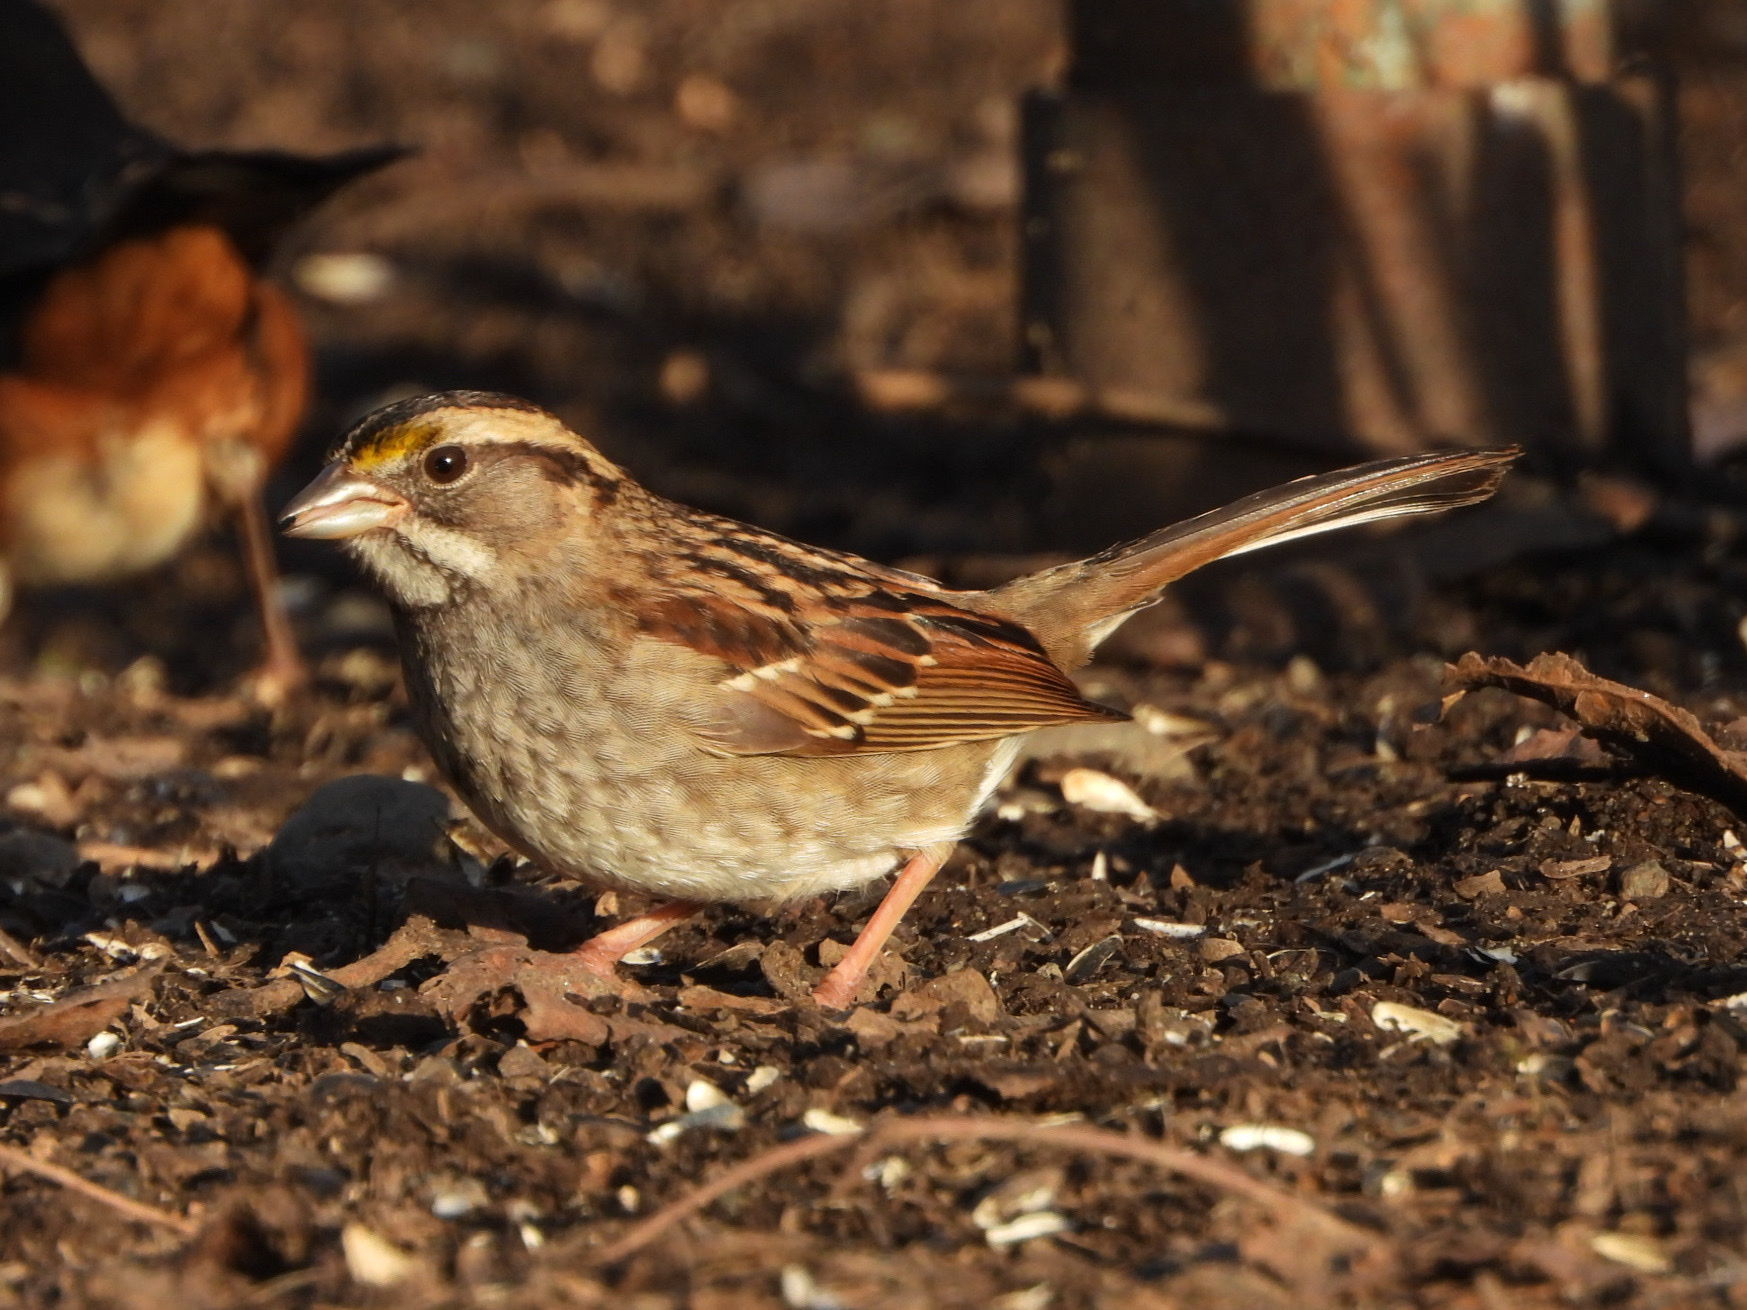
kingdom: Animalia
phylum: Chordata
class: Aves
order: Passeriformes
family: Passerellidae
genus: Zonotrichia
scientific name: Zonotrichia albicollis
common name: White-throated sparrow
